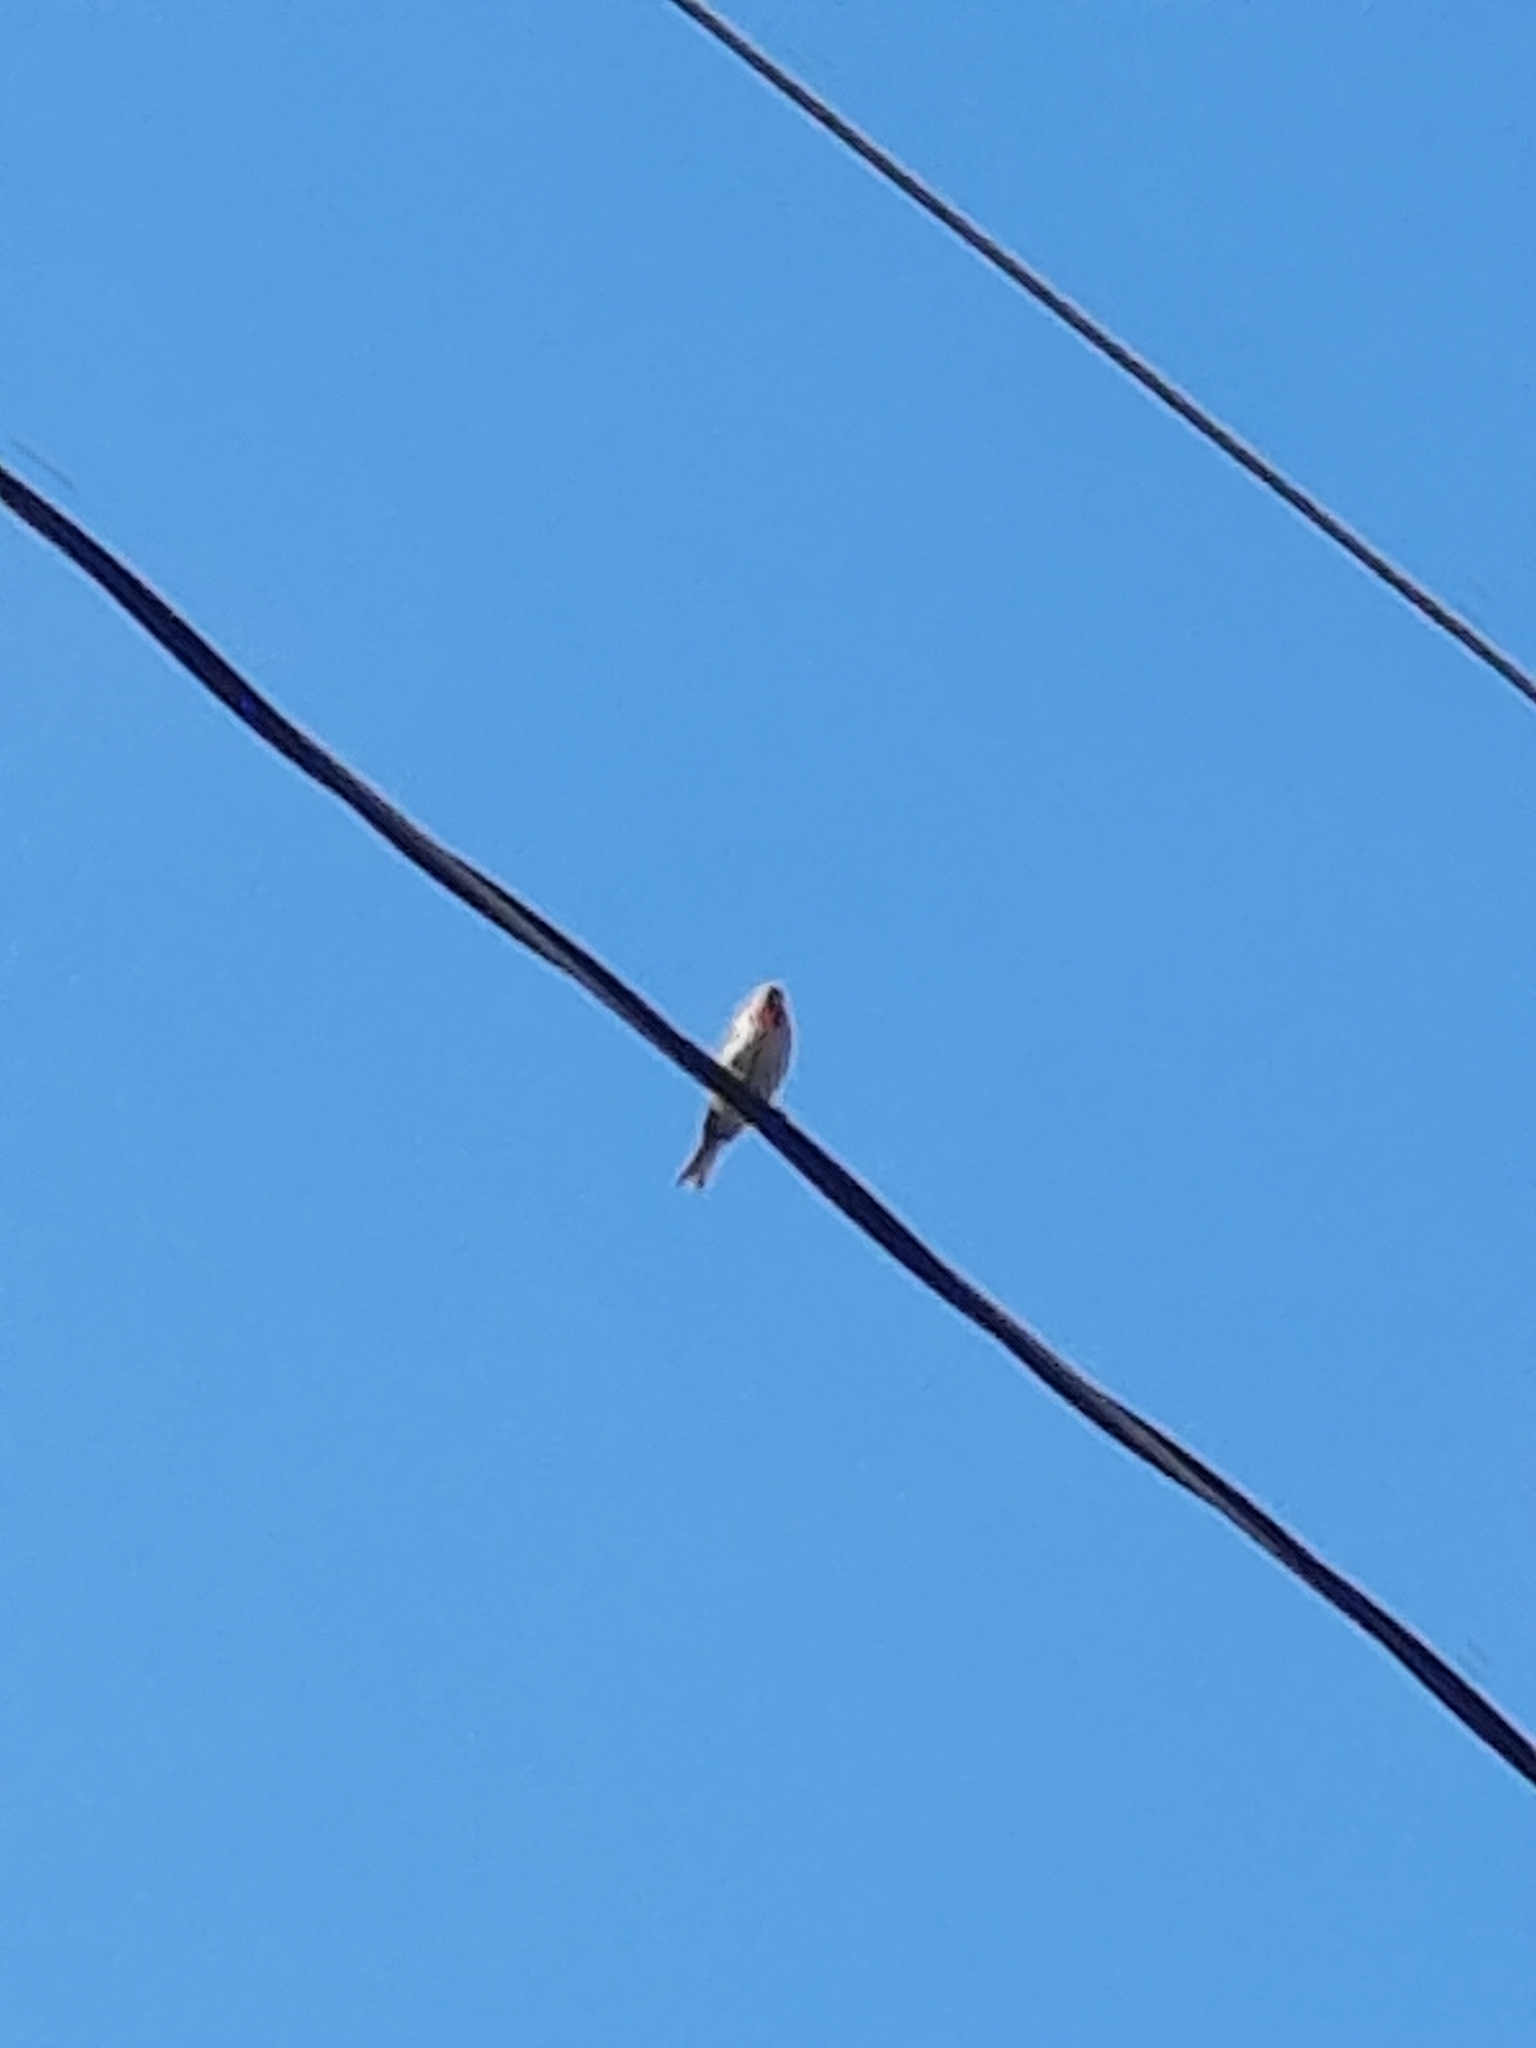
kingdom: Animalia
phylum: Chordata
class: Aves
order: Passeriformes
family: Fringillidae
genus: Haemorhous
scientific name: Haemorhous mexicanus
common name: House finch
